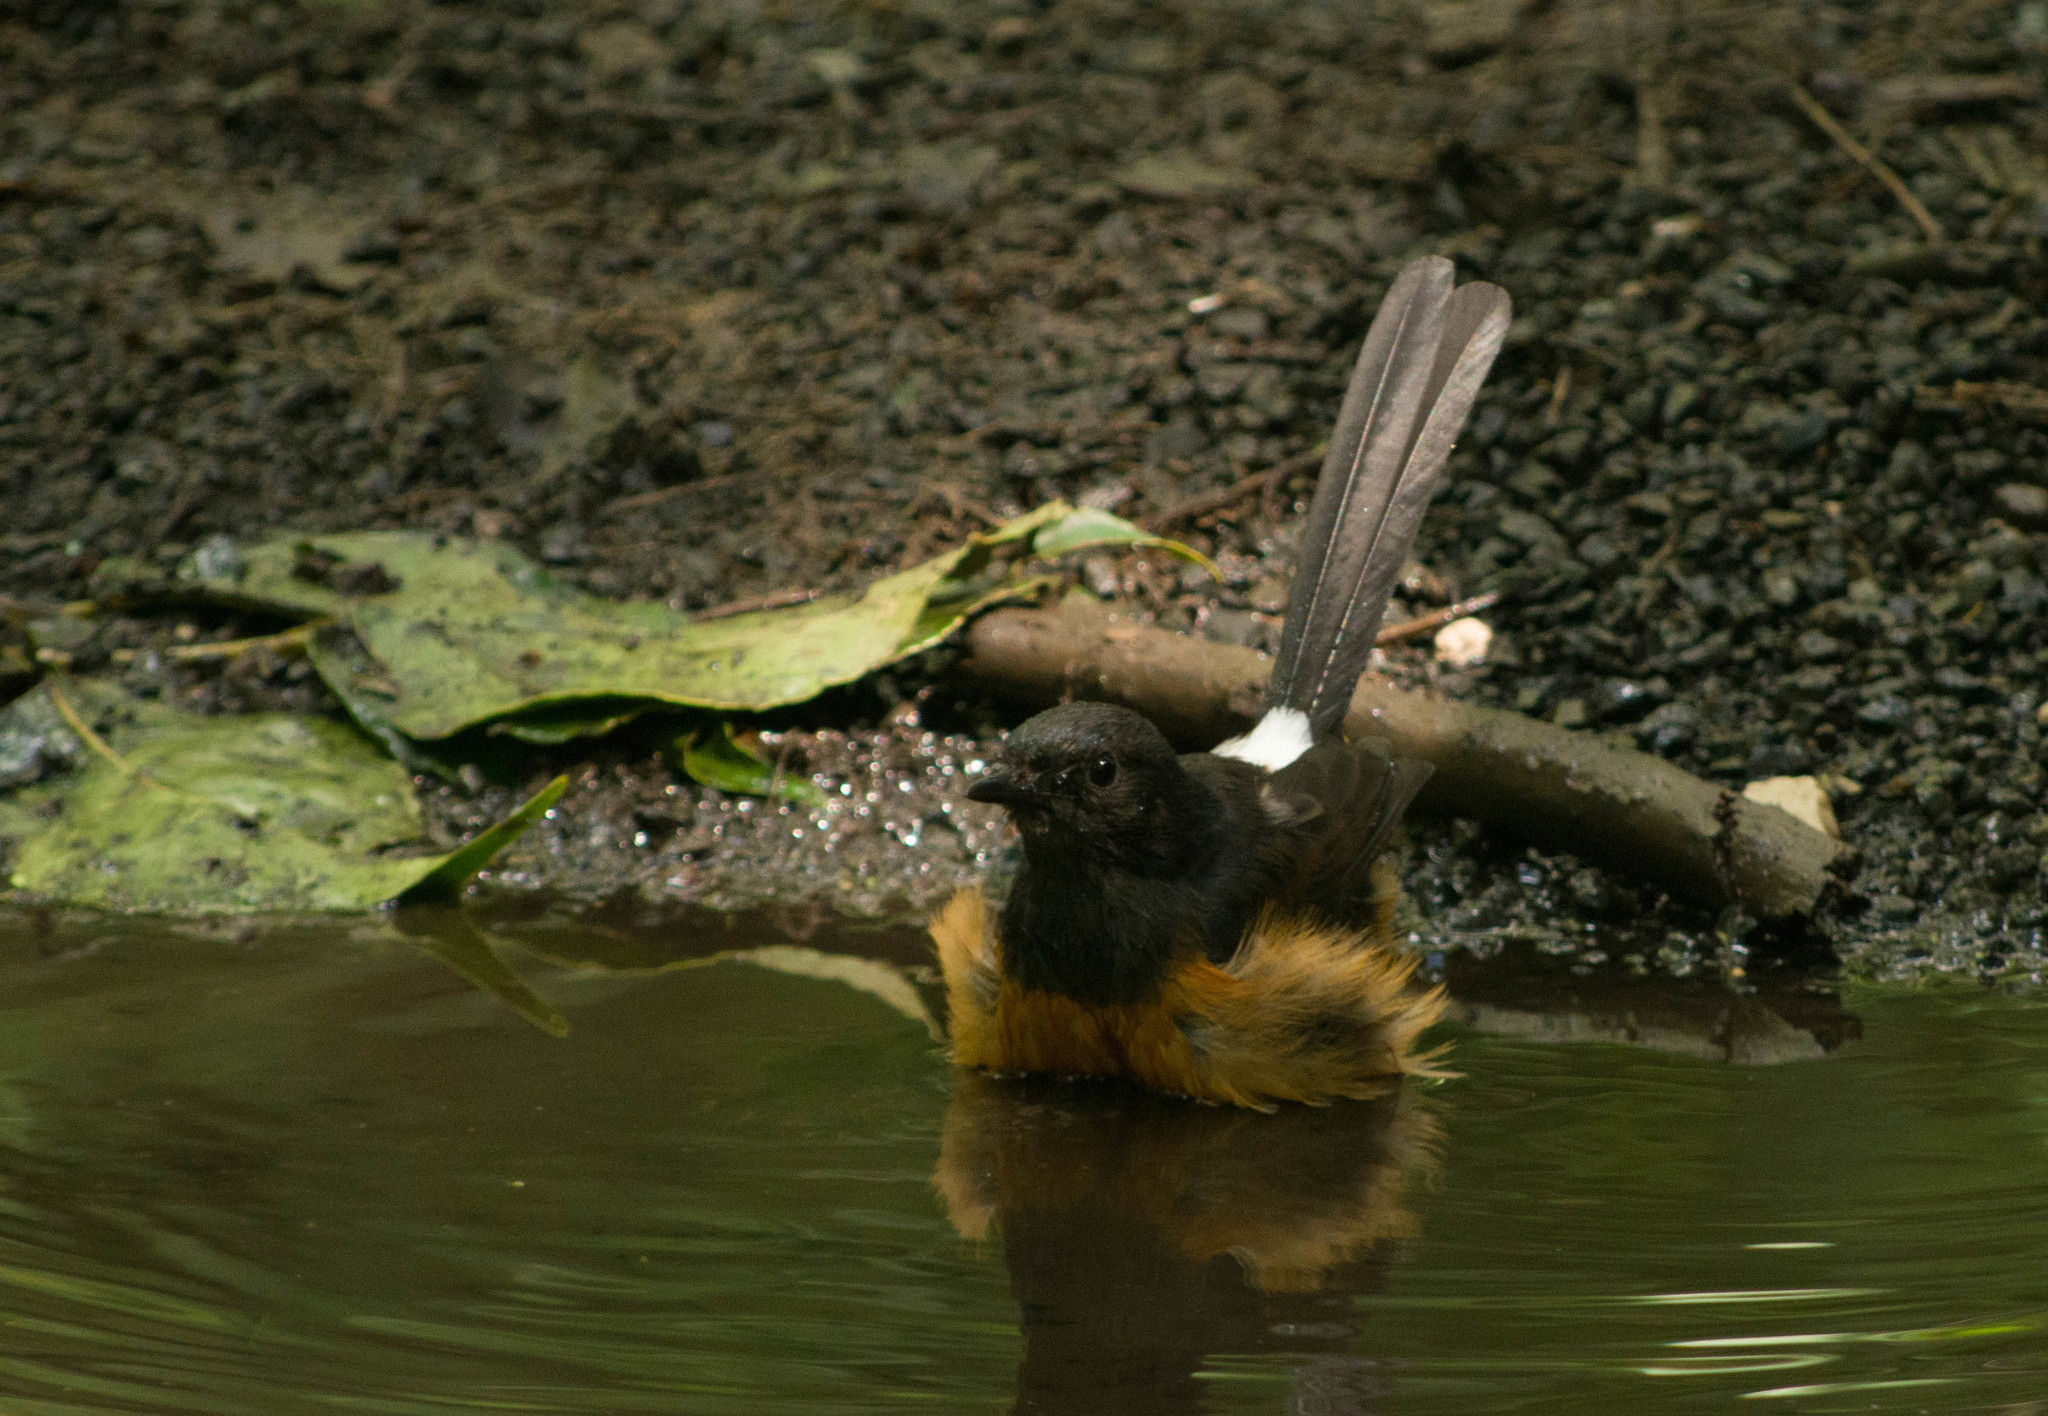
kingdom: Animalia
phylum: Chordata
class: Aves
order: Passeriformes
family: Muscicapidae
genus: Copsychus
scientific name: Copsychus malabaricus
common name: White-rumped shama
